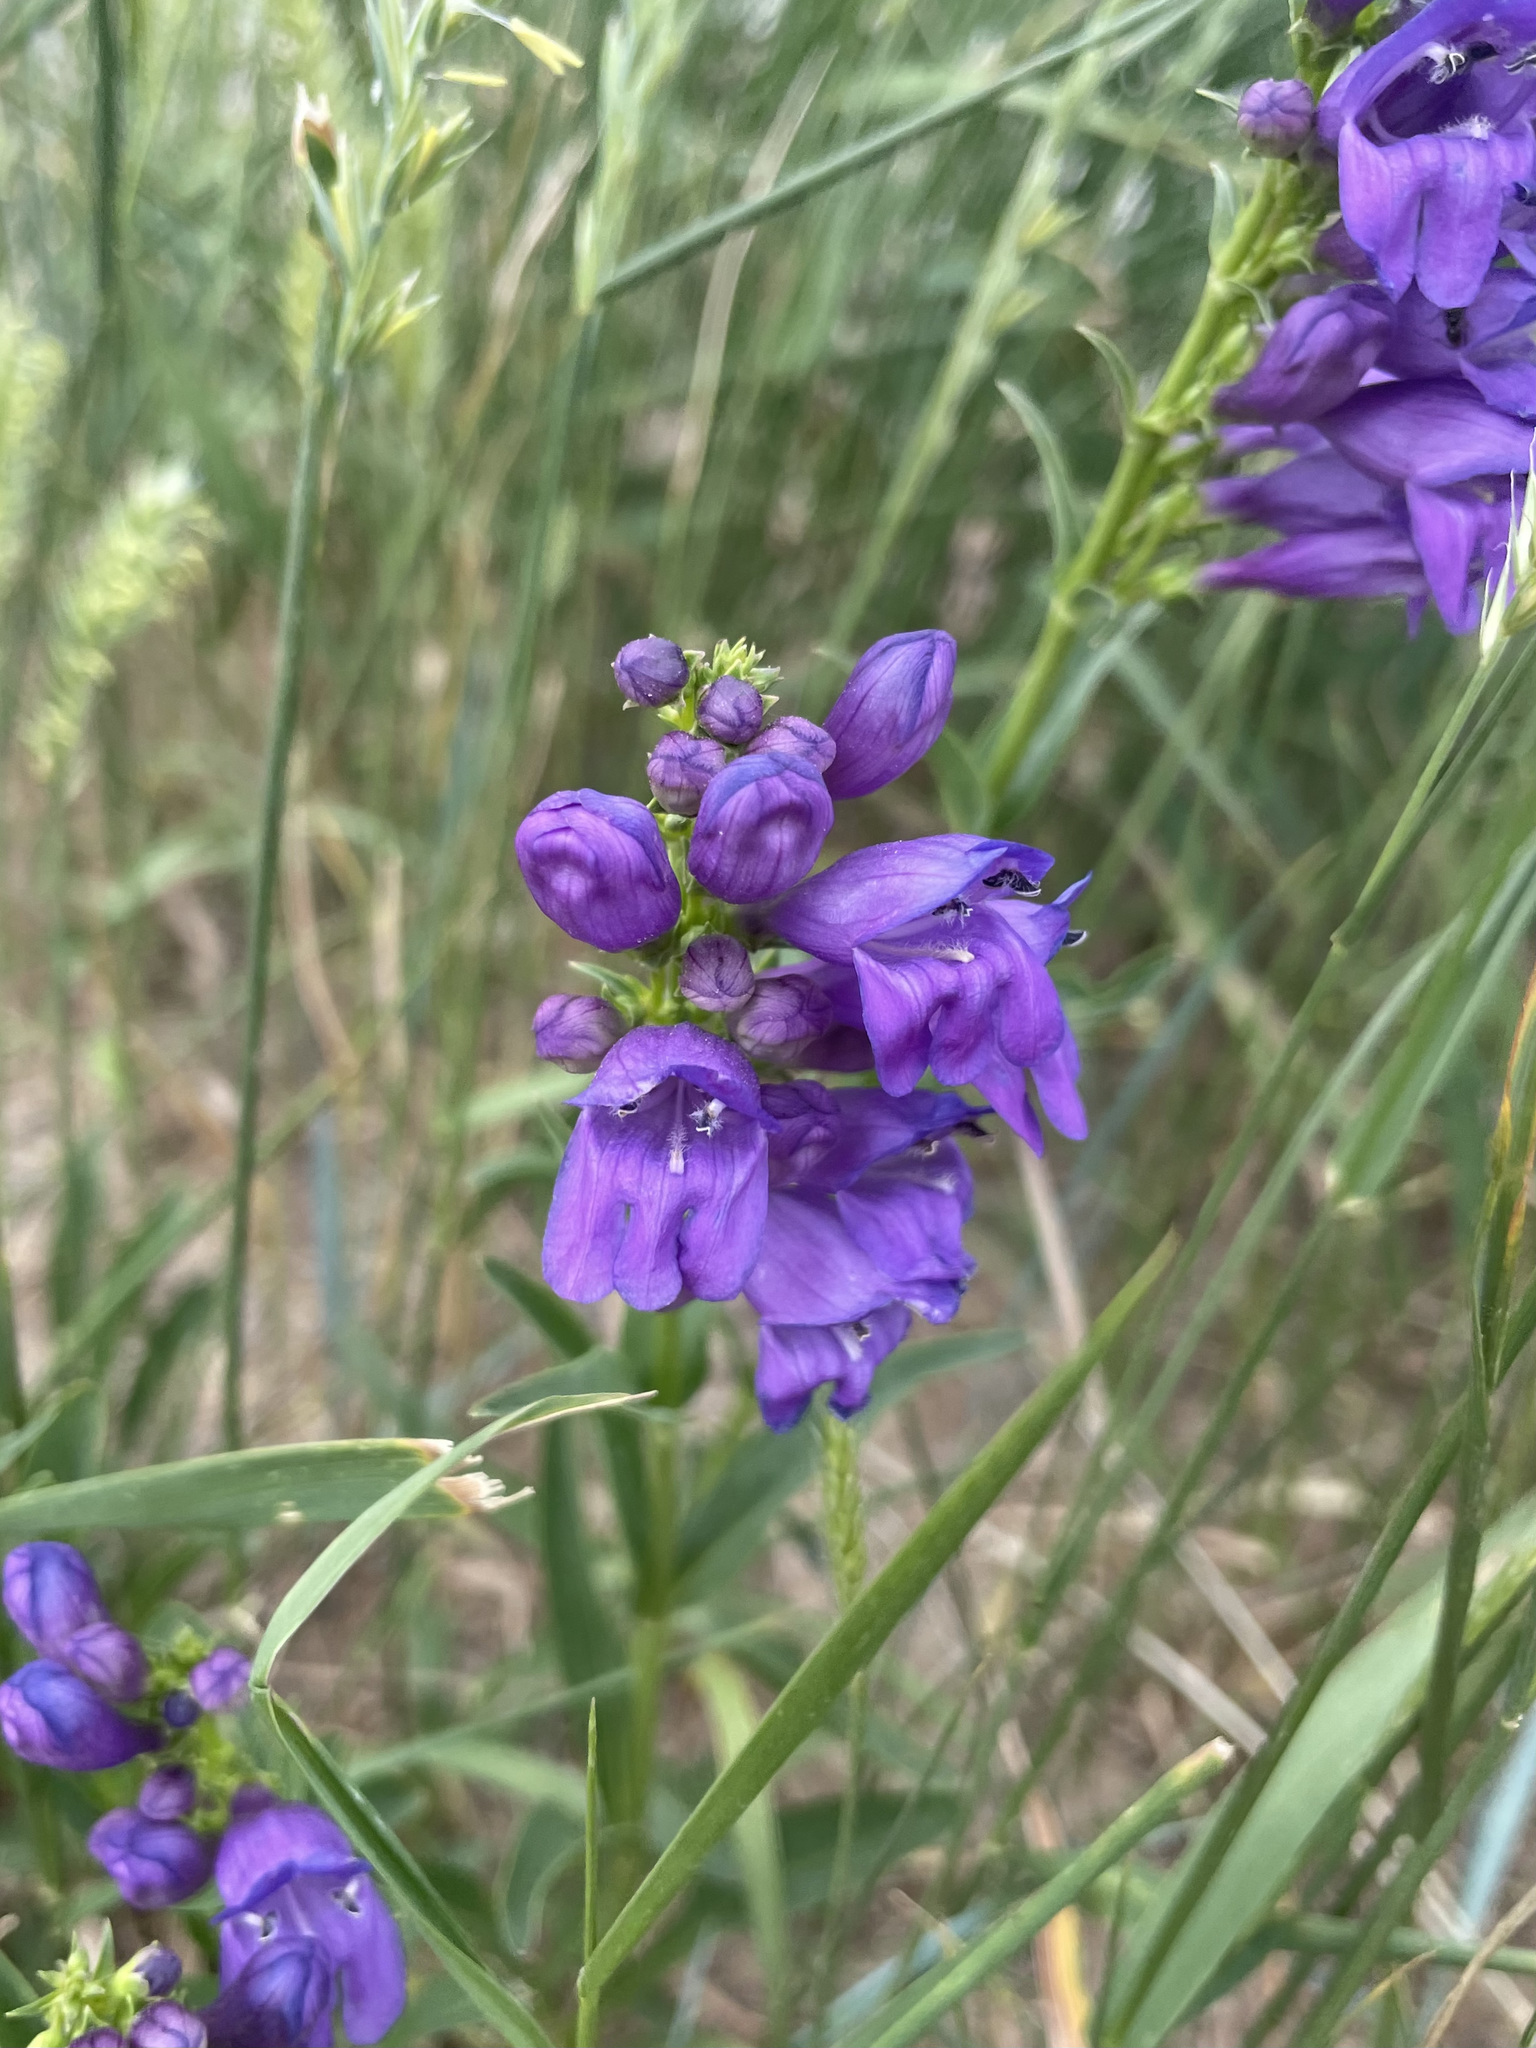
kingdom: Plantae
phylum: Tracheophyta
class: Magnoliopsida
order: Lamiales
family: Plantaginaceae
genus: Penstemon
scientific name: Penstemon strictus
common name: Rocky mountain penstemon
